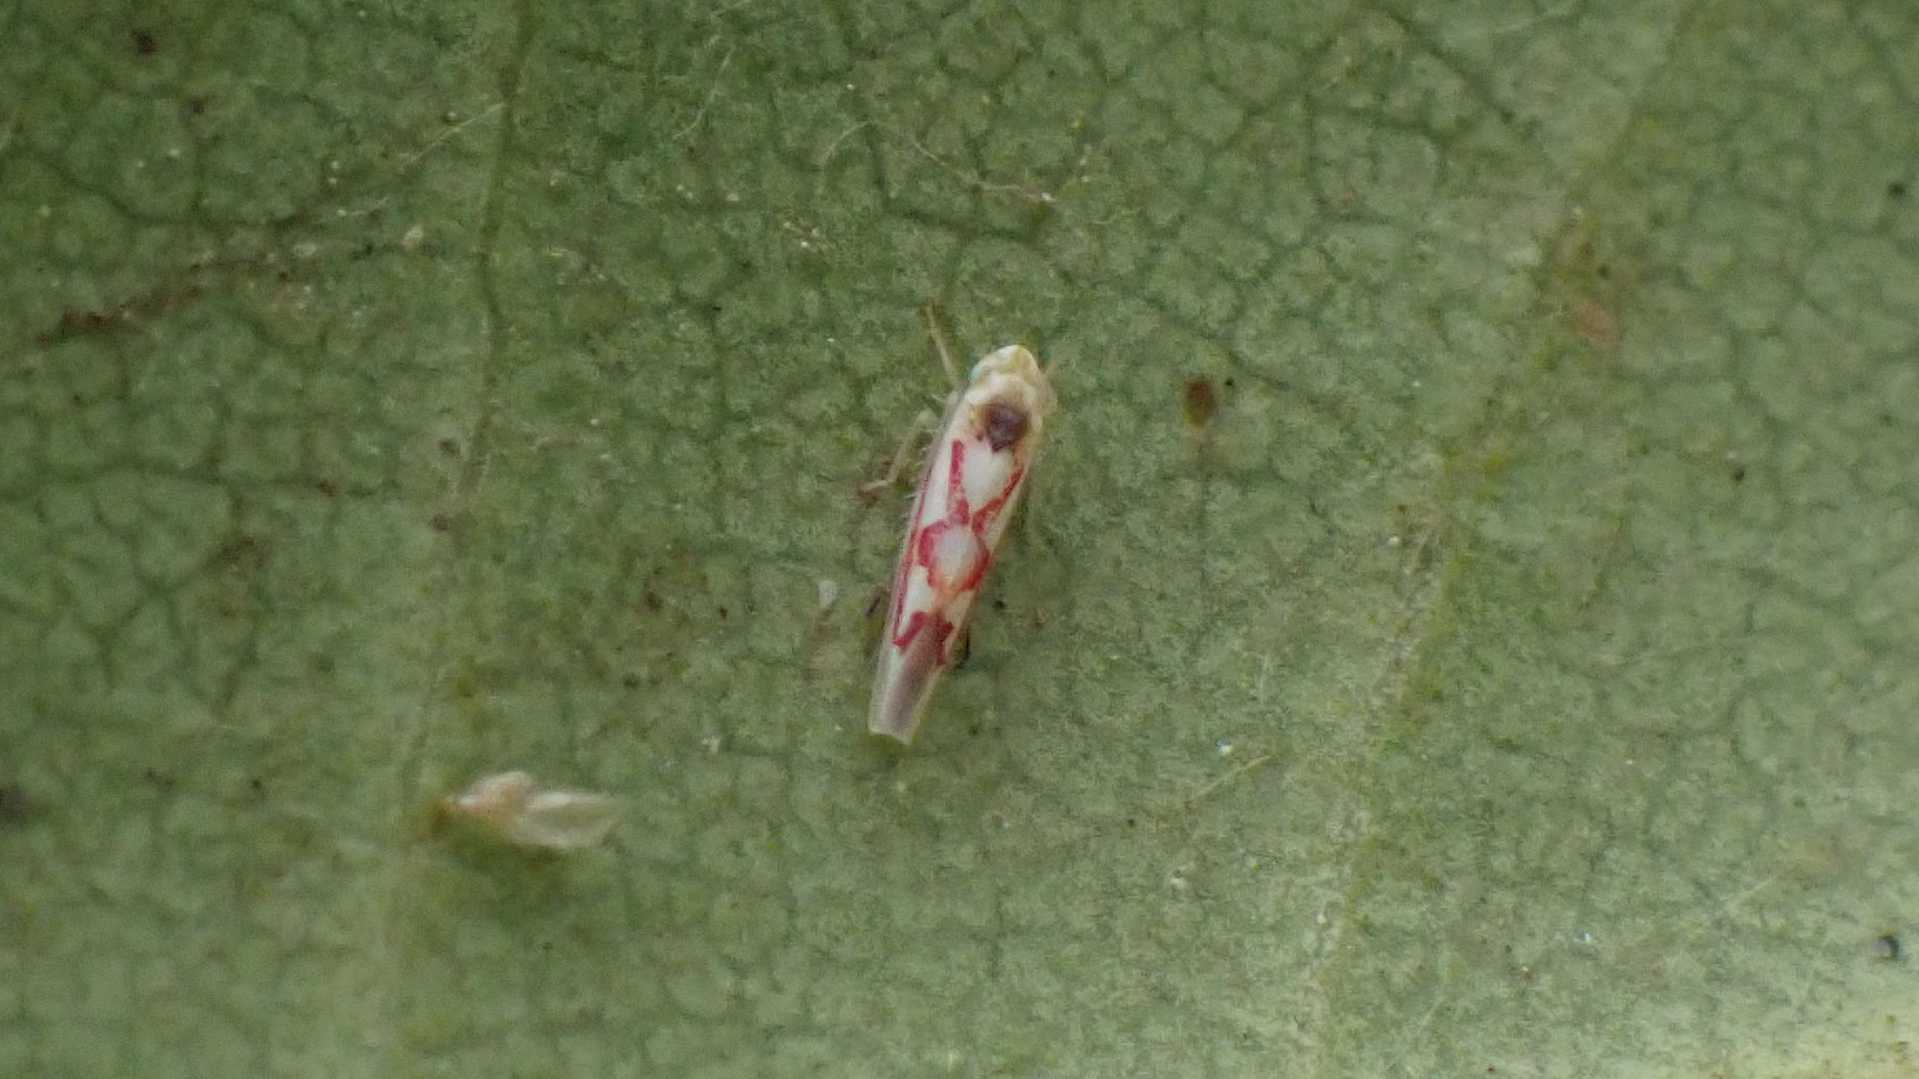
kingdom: Animalia
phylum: Arthropoda
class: Insecta
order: Hemiptera
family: Cicadellidae
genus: Zygina
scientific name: Zygina flammigera
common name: Leafhopper
